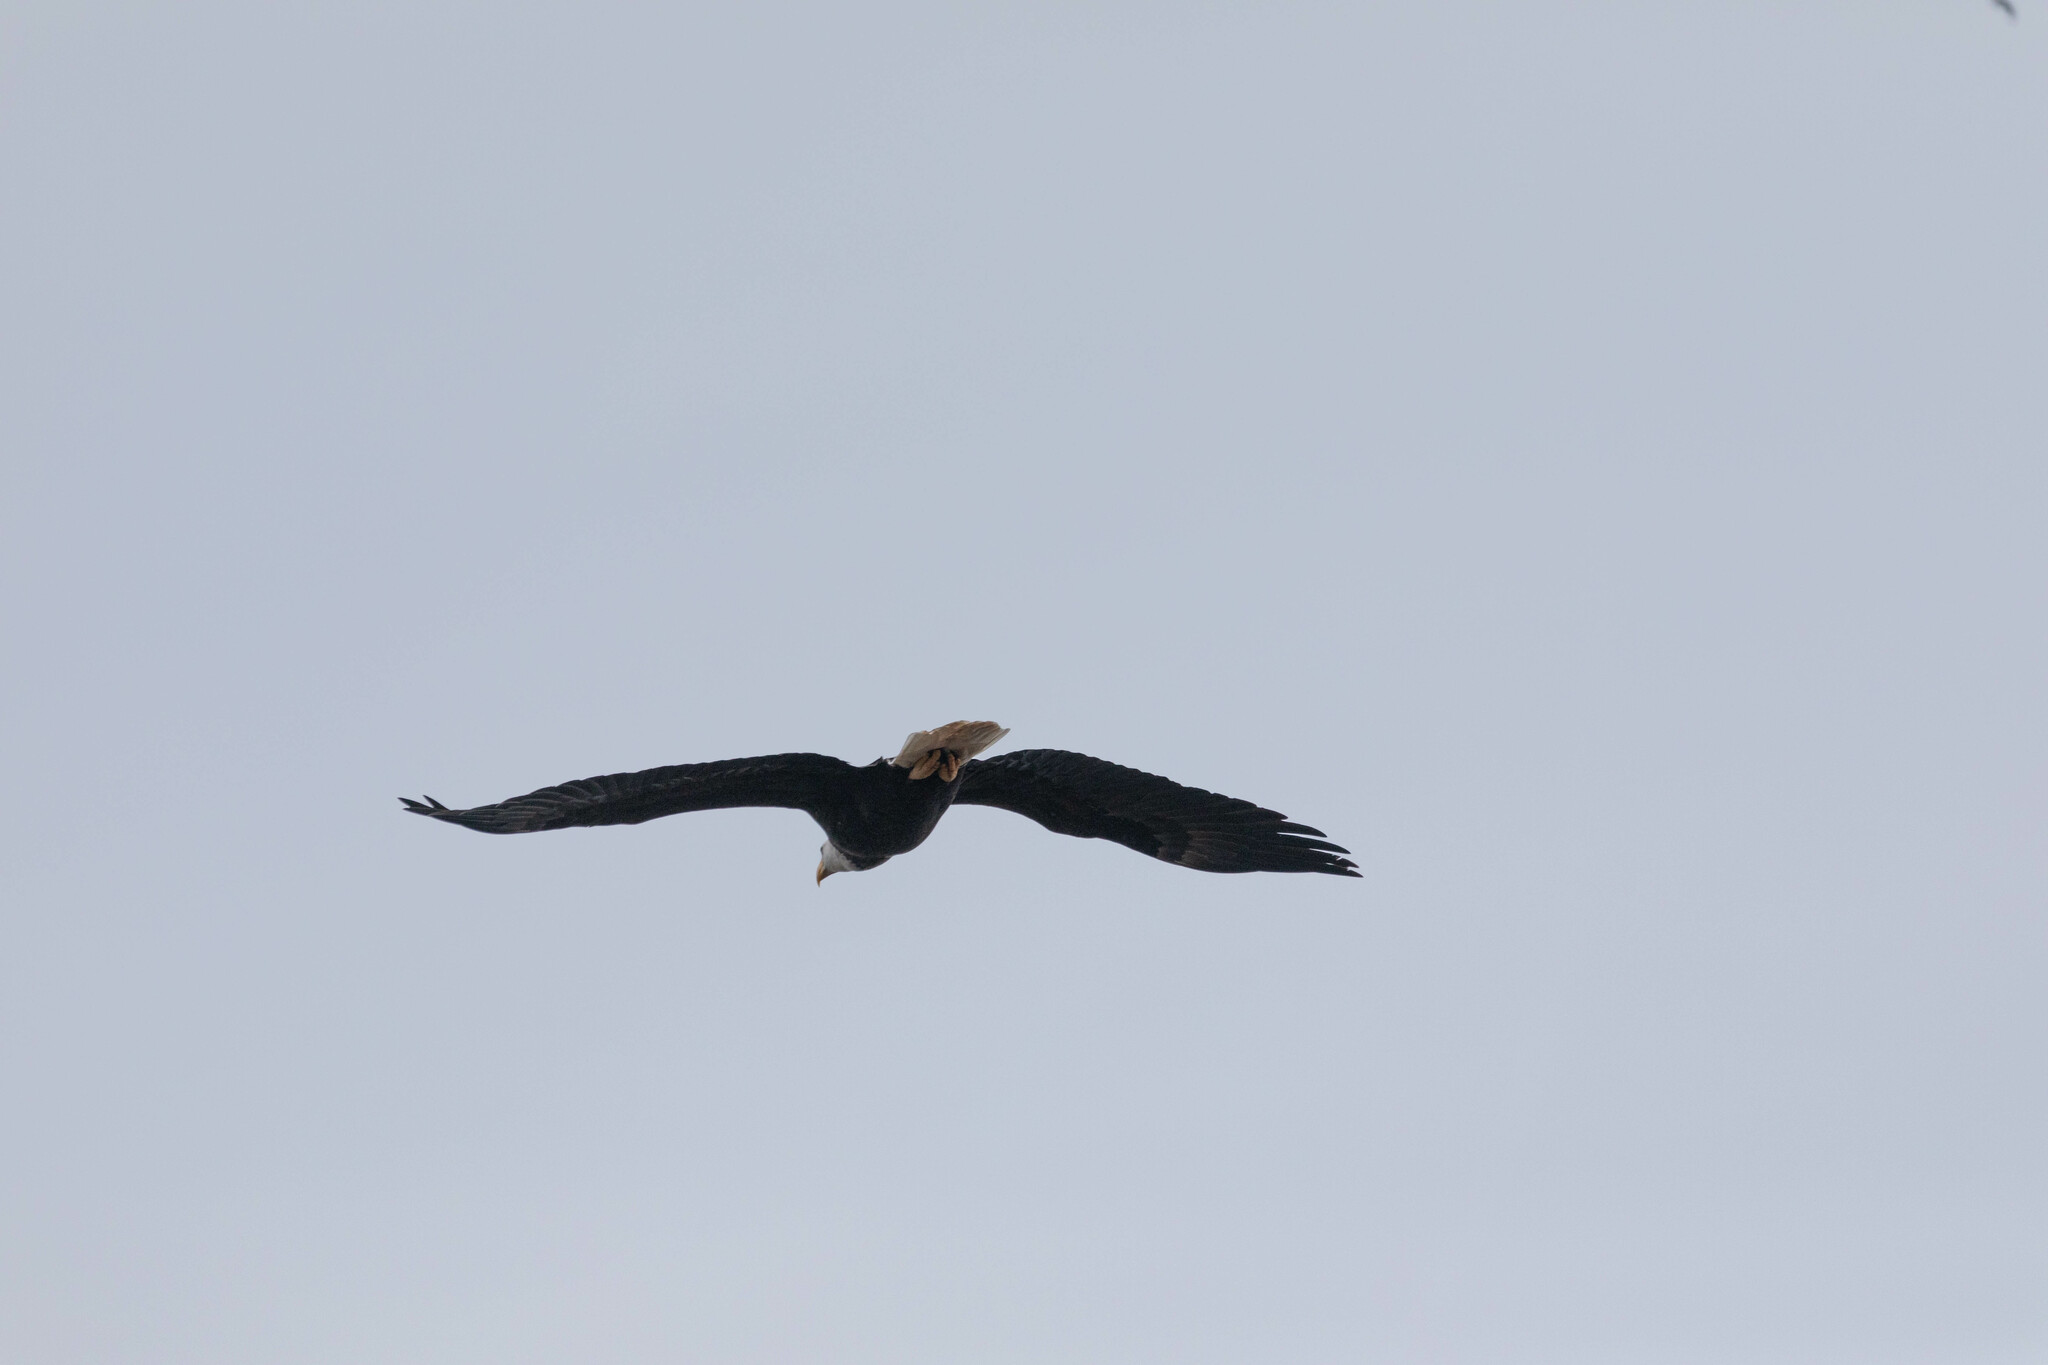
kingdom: Animalia
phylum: Chordata
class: Aves
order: Accipitriformes
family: Accipitridae
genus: Haliaeetus
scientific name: Haliaeetus leucocephalus
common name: Bald eagle
